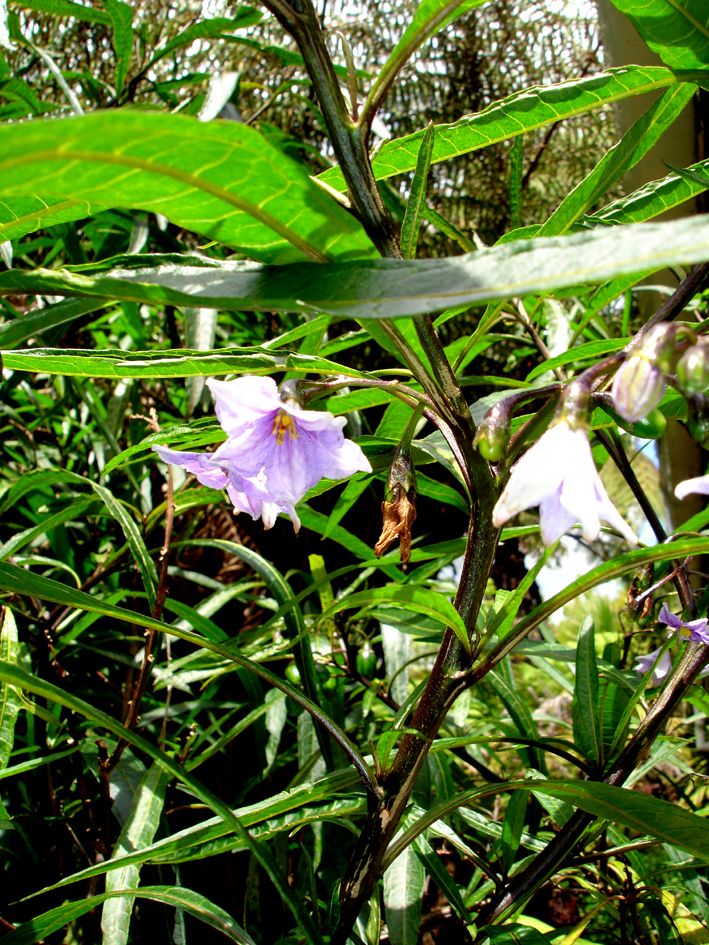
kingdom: Plantae
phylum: Tracheophyta
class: Magnoliopsida
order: Solanales
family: Solanaceae
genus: Solanum
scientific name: Solanum aviculare
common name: New zealand nightshade
